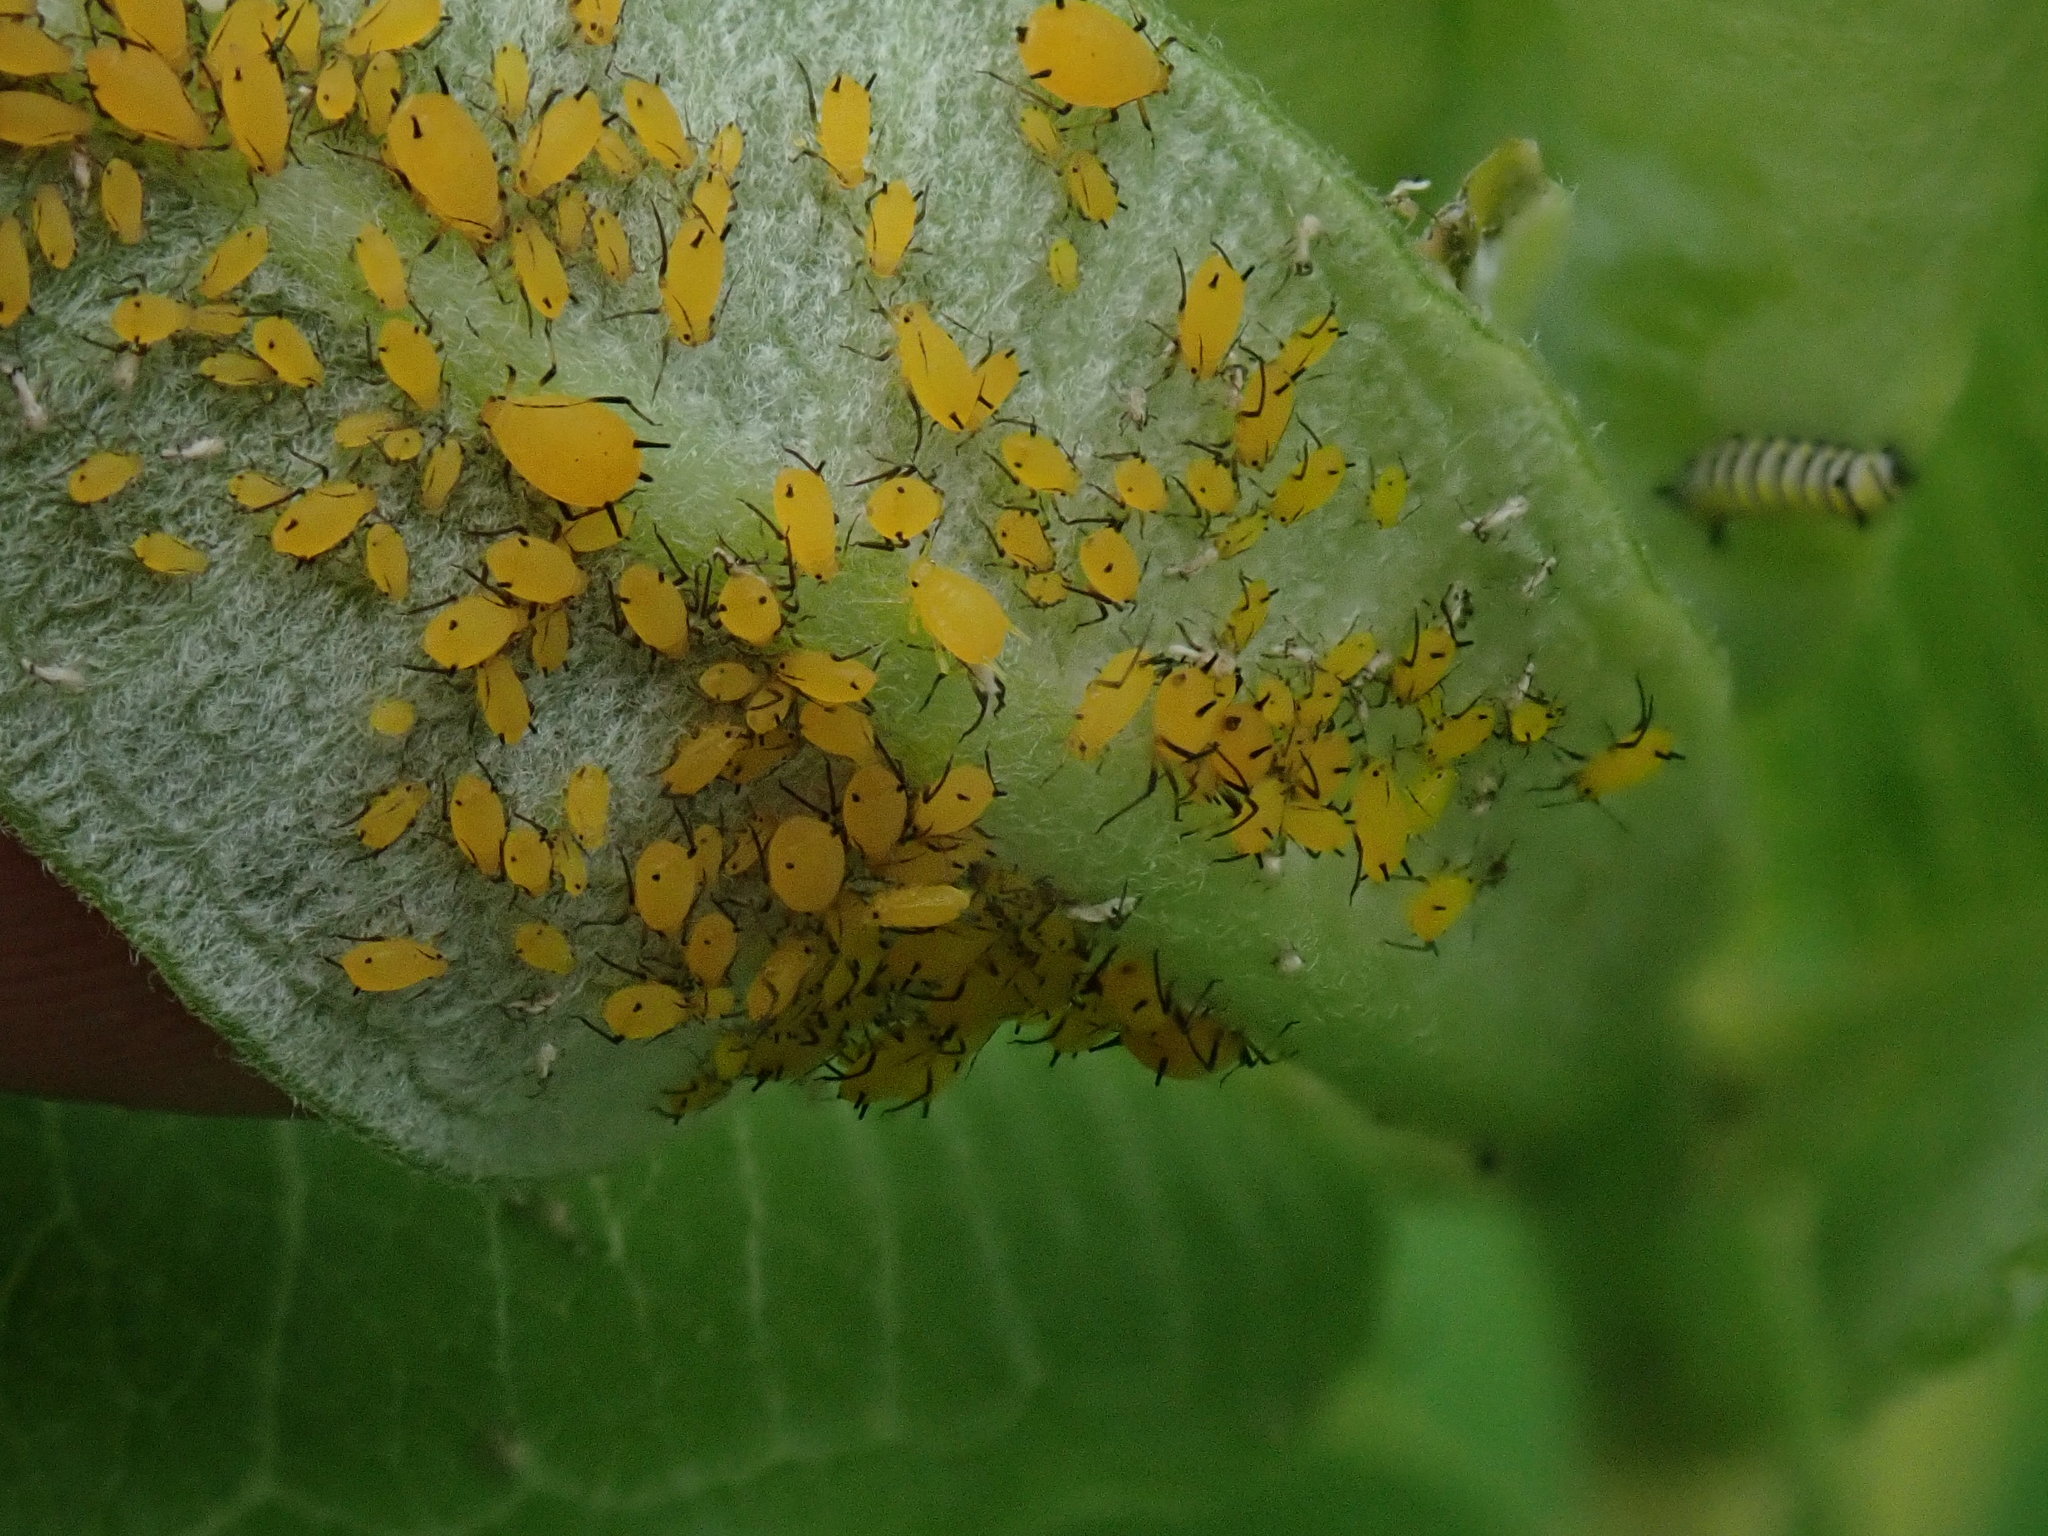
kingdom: Animalia
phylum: Arthropoda
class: Insecta
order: Hemiptera
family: Aphididae
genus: Aphis
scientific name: Aphis nerii
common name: Oleander aphid
